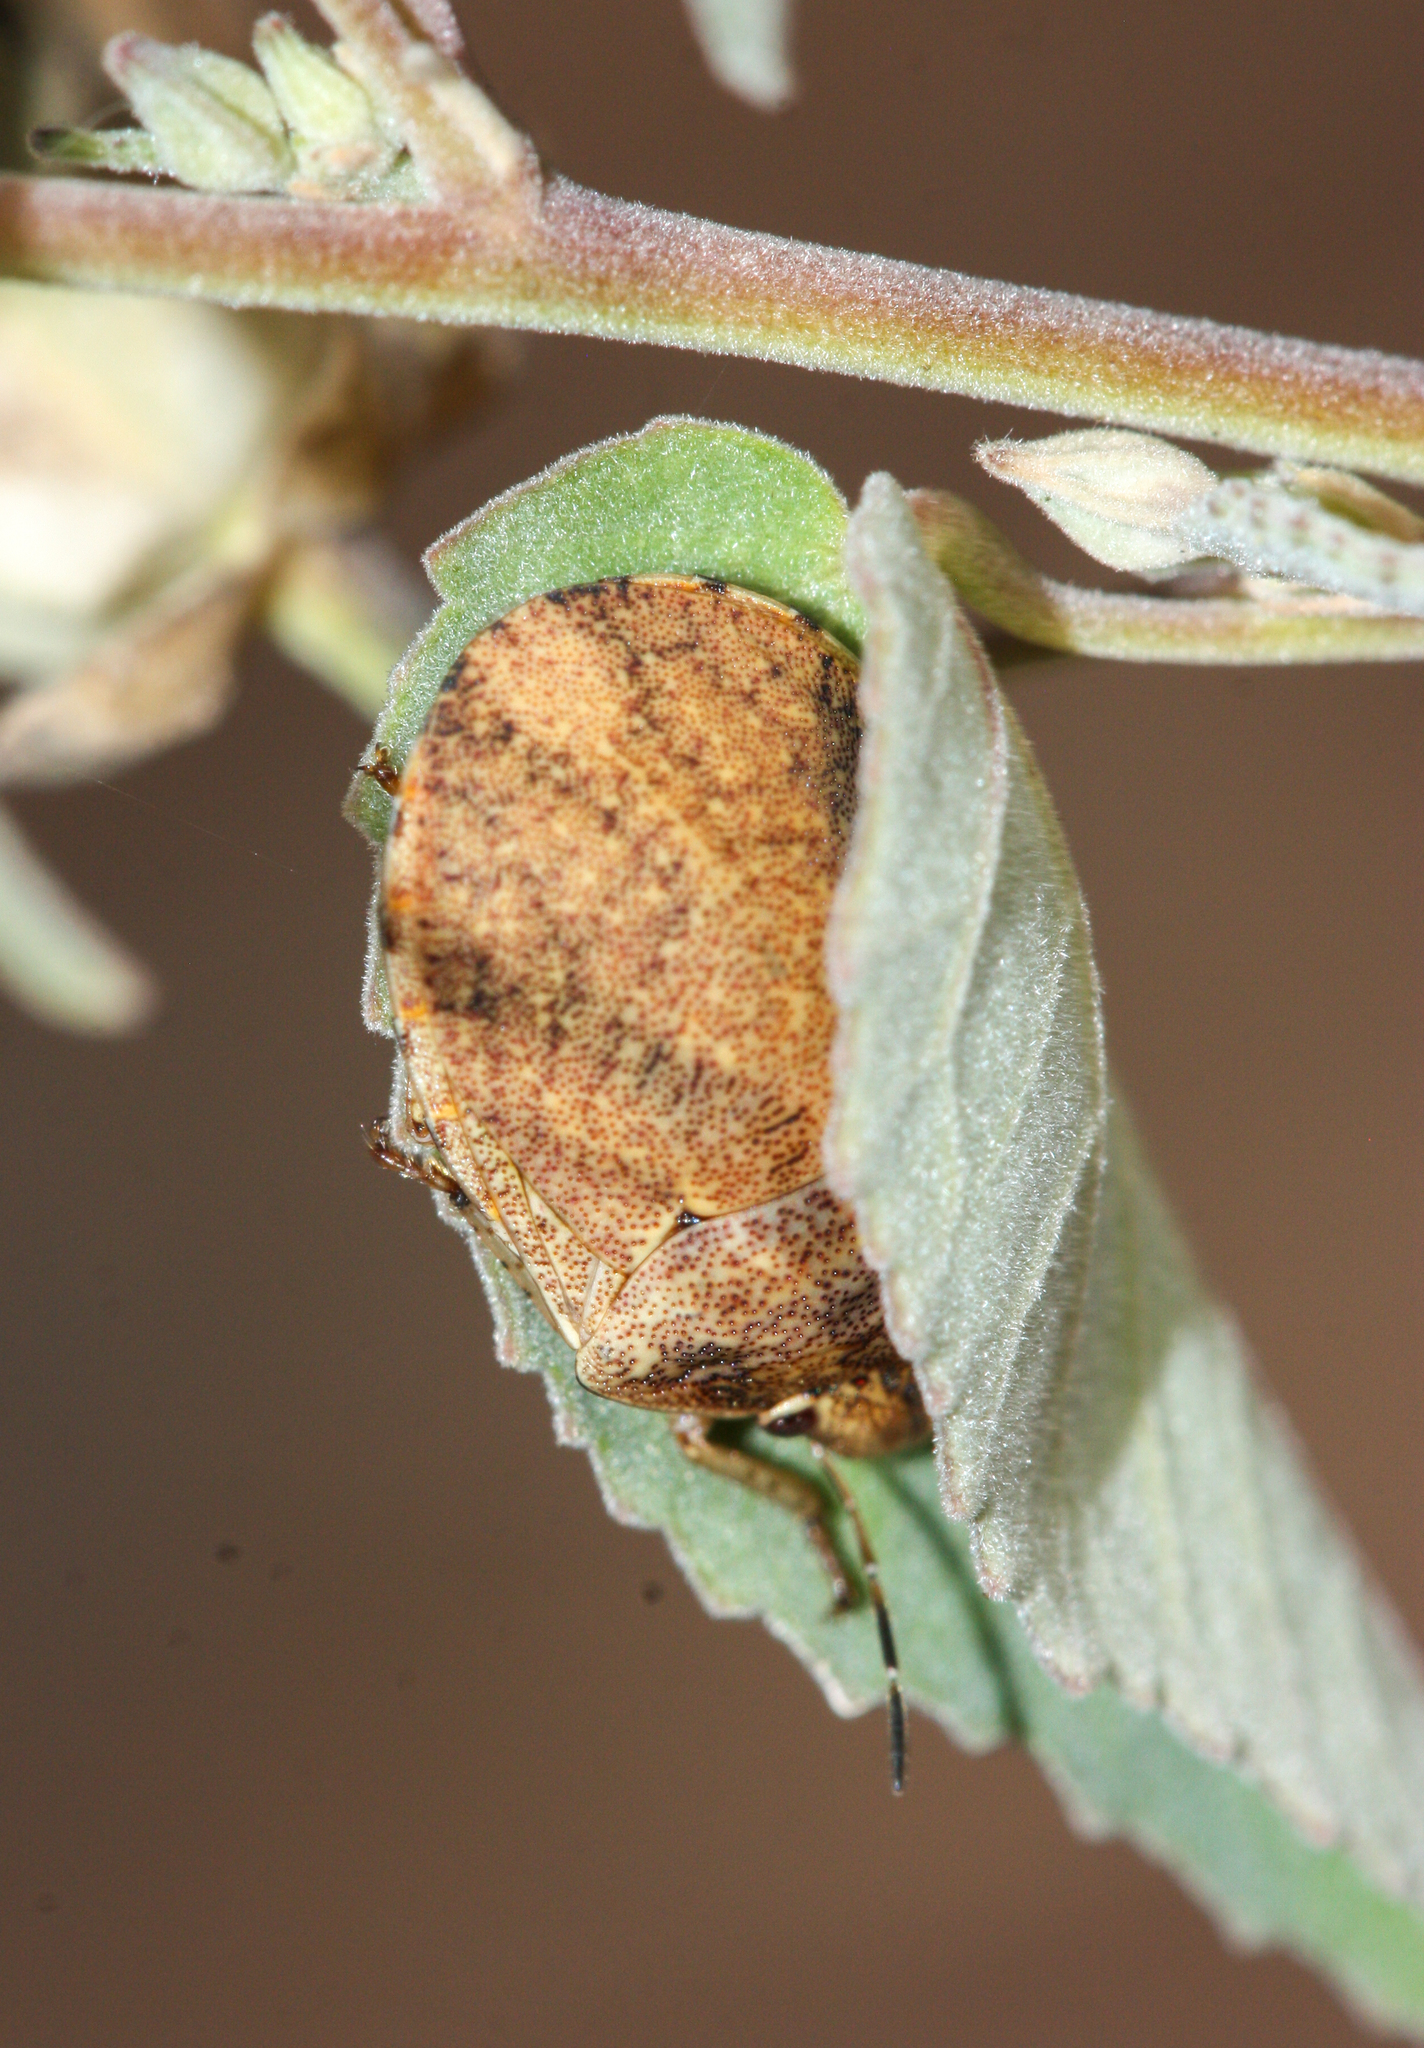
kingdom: Animalia
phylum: Arthropoda
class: Insecta
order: Hemiptera
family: Scutelleridae
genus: Sphyrocoris
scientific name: Sphyrocoris obliquus
